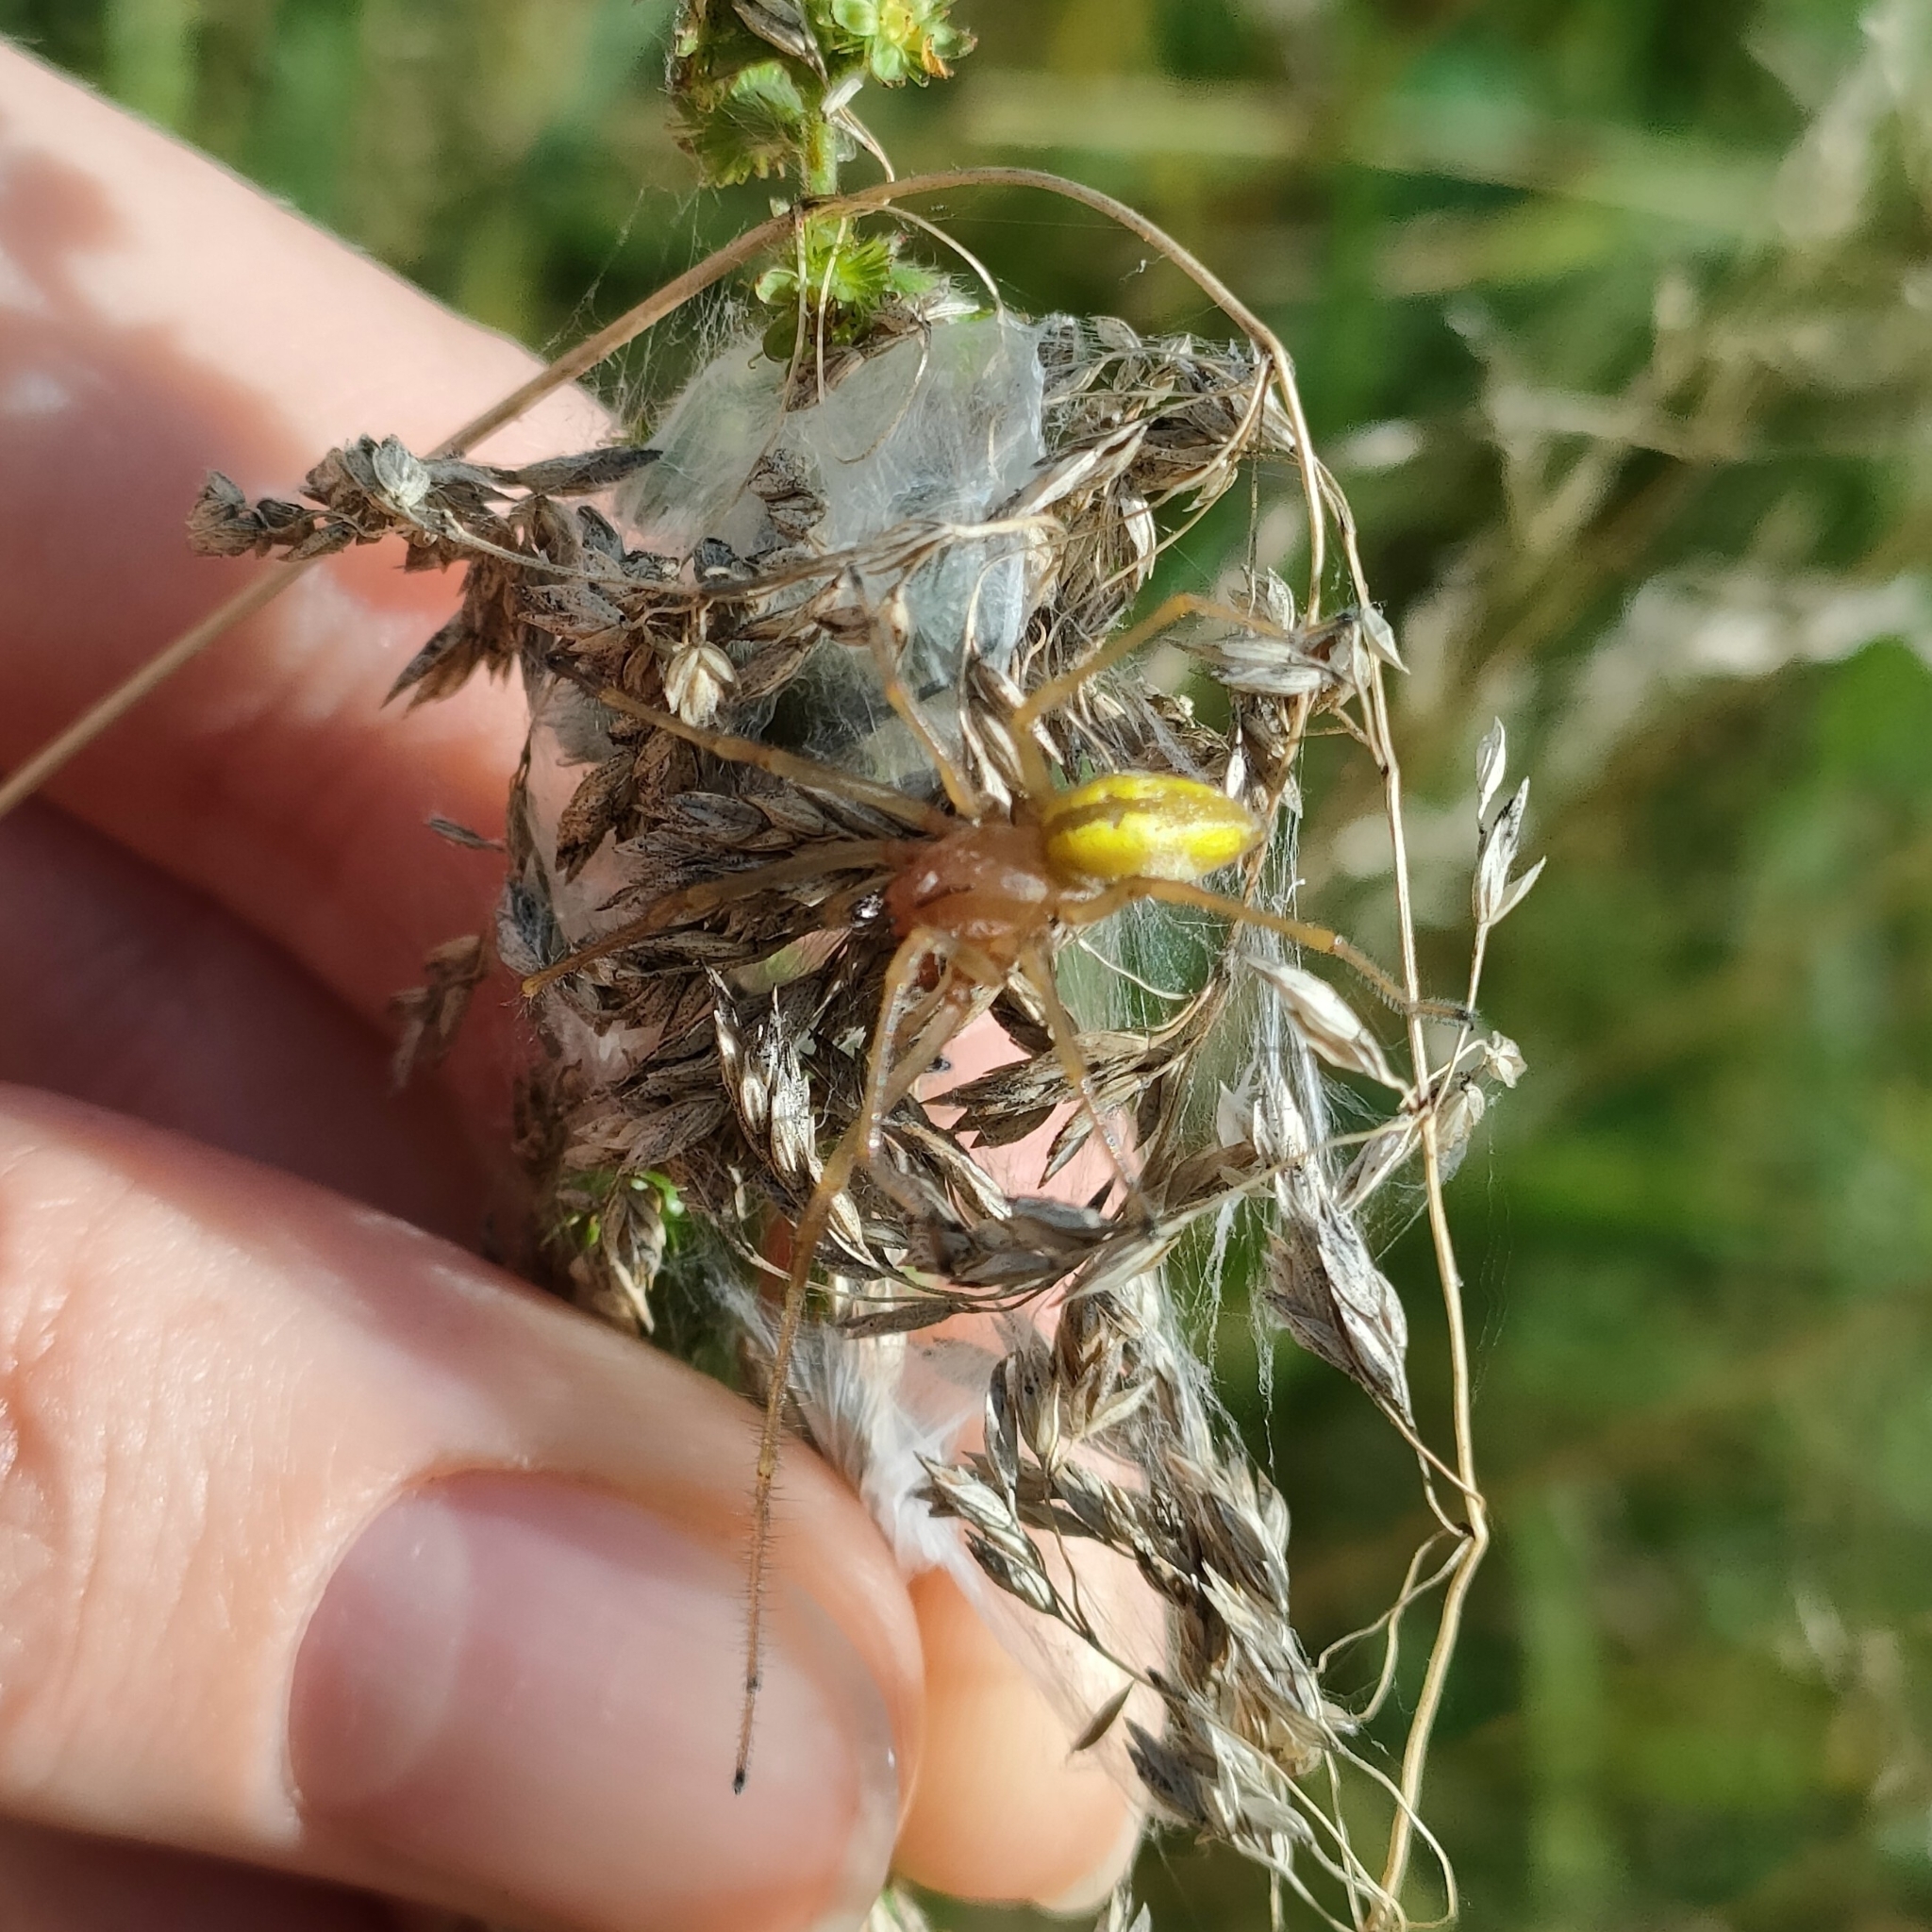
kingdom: Animalia
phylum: Arthropoda
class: Arachnida
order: Araneae
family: Cheiracanthiidae
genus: Cheiracanthium
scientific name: Cheiracanthium punctorium
